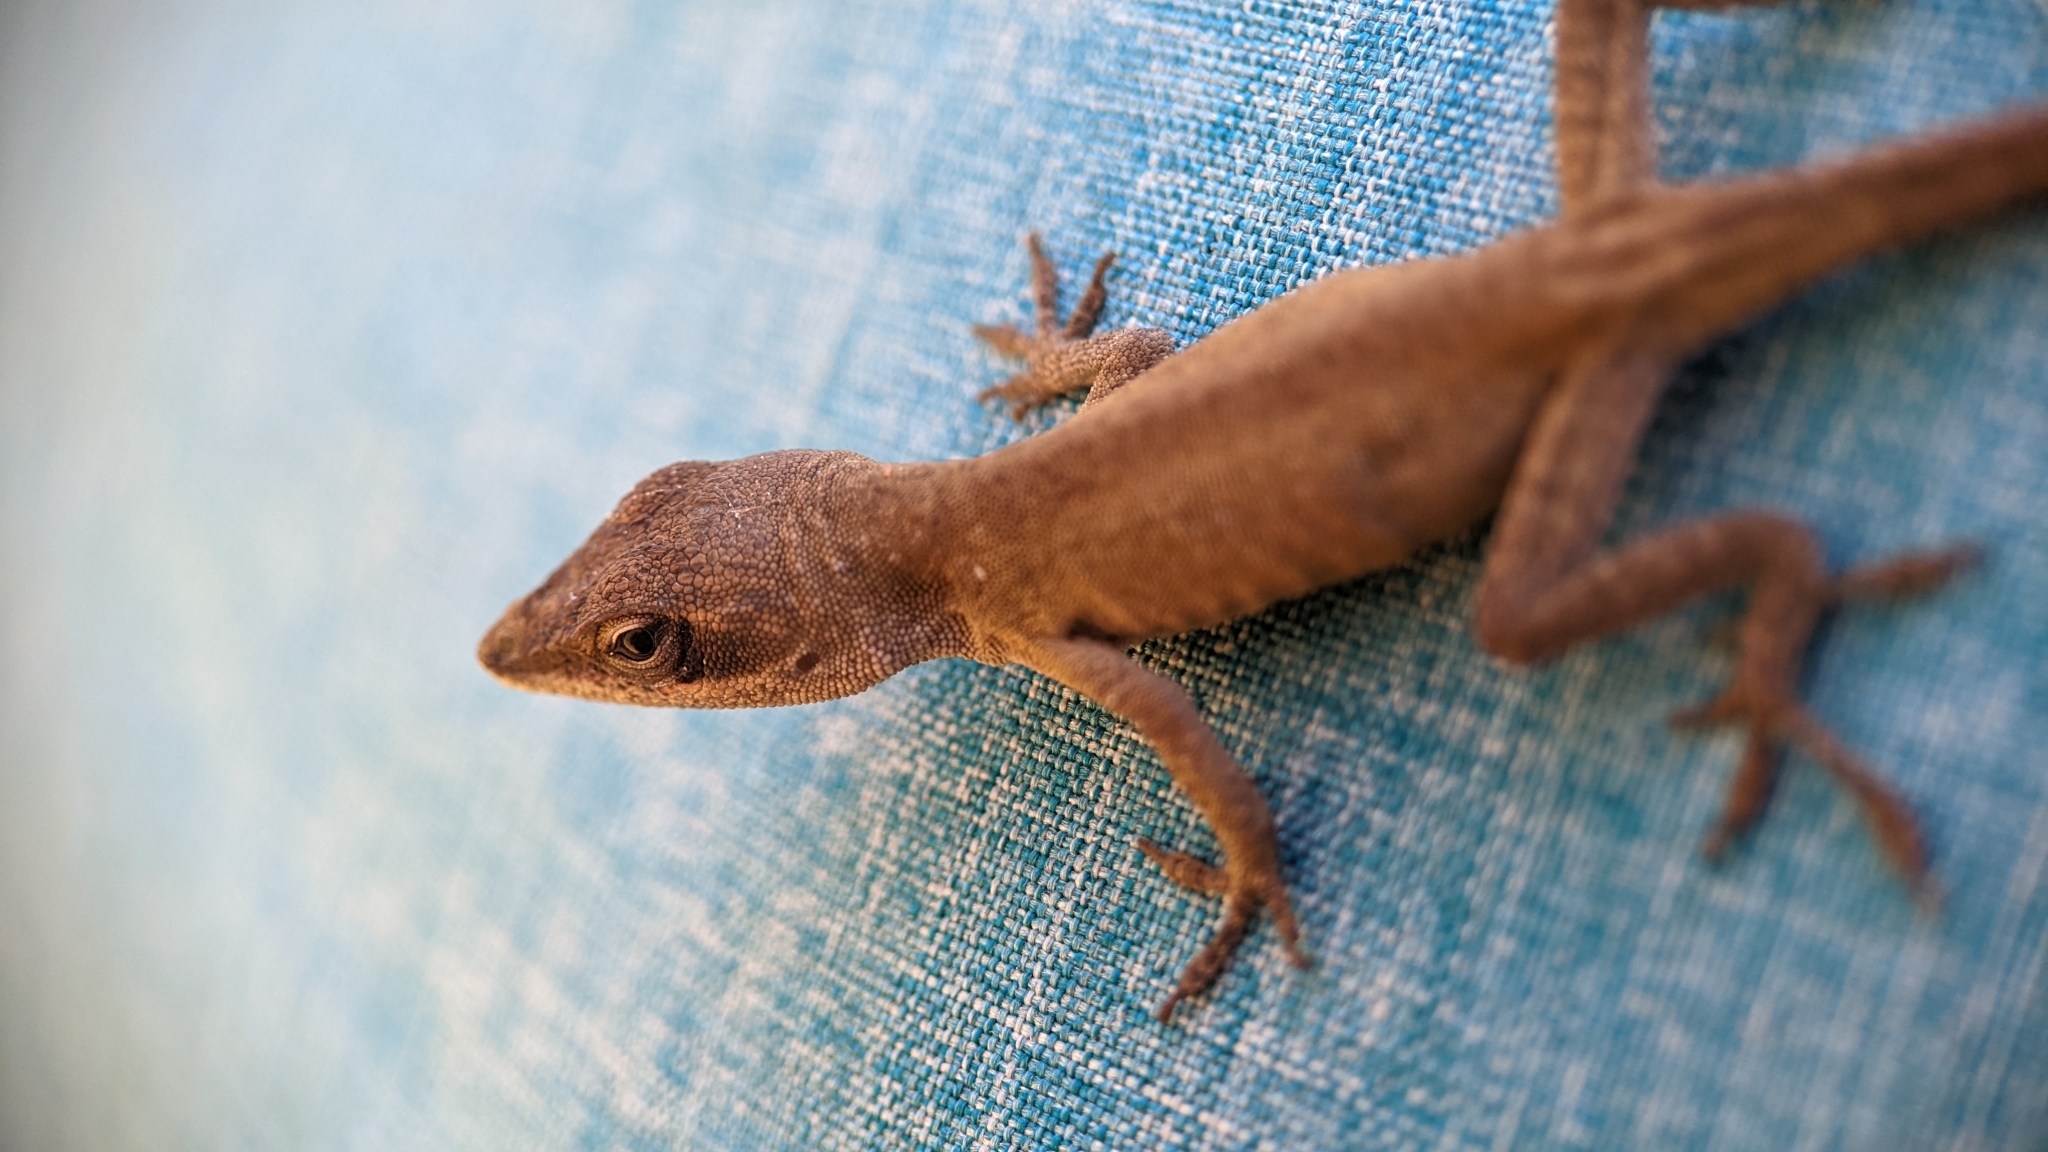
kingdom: Animalia
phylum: Chordata
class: Squamata
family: Dactyloidae
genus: Anolis
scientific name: Anolis carolinensis
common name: Green anole
